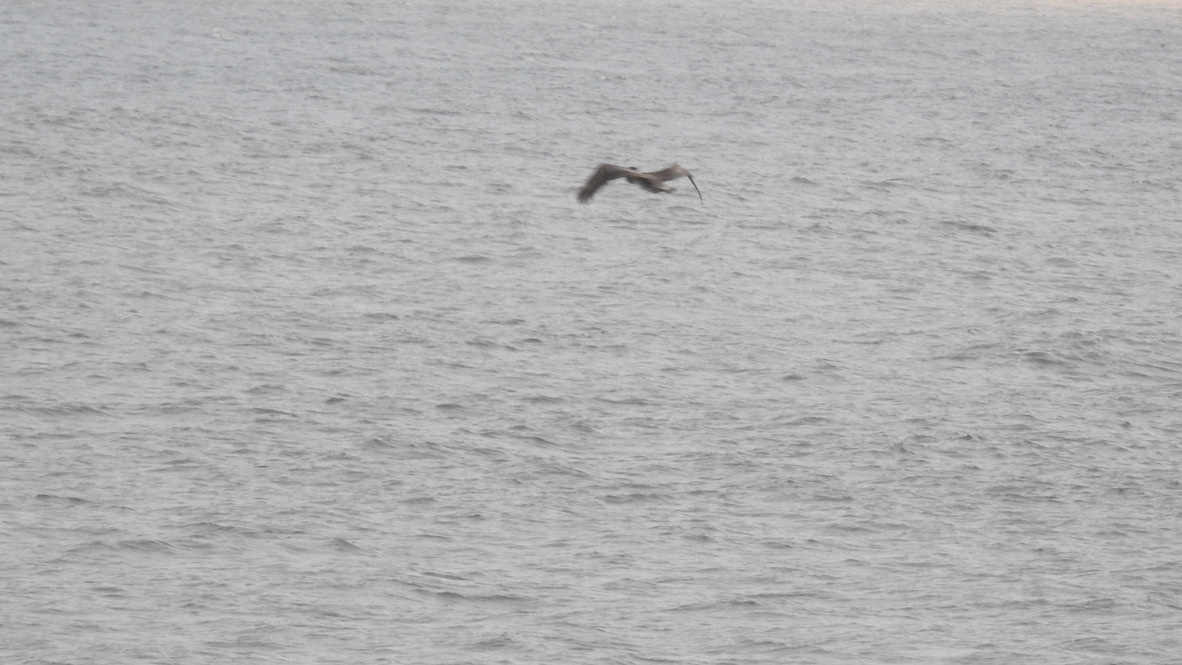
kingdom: Animalia
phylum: Chordata
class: Aves
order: Pelecaniformes
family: Pelecanidae
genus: Pelecanus
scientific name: Pelecanus occidentalis
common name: Brown pelican
